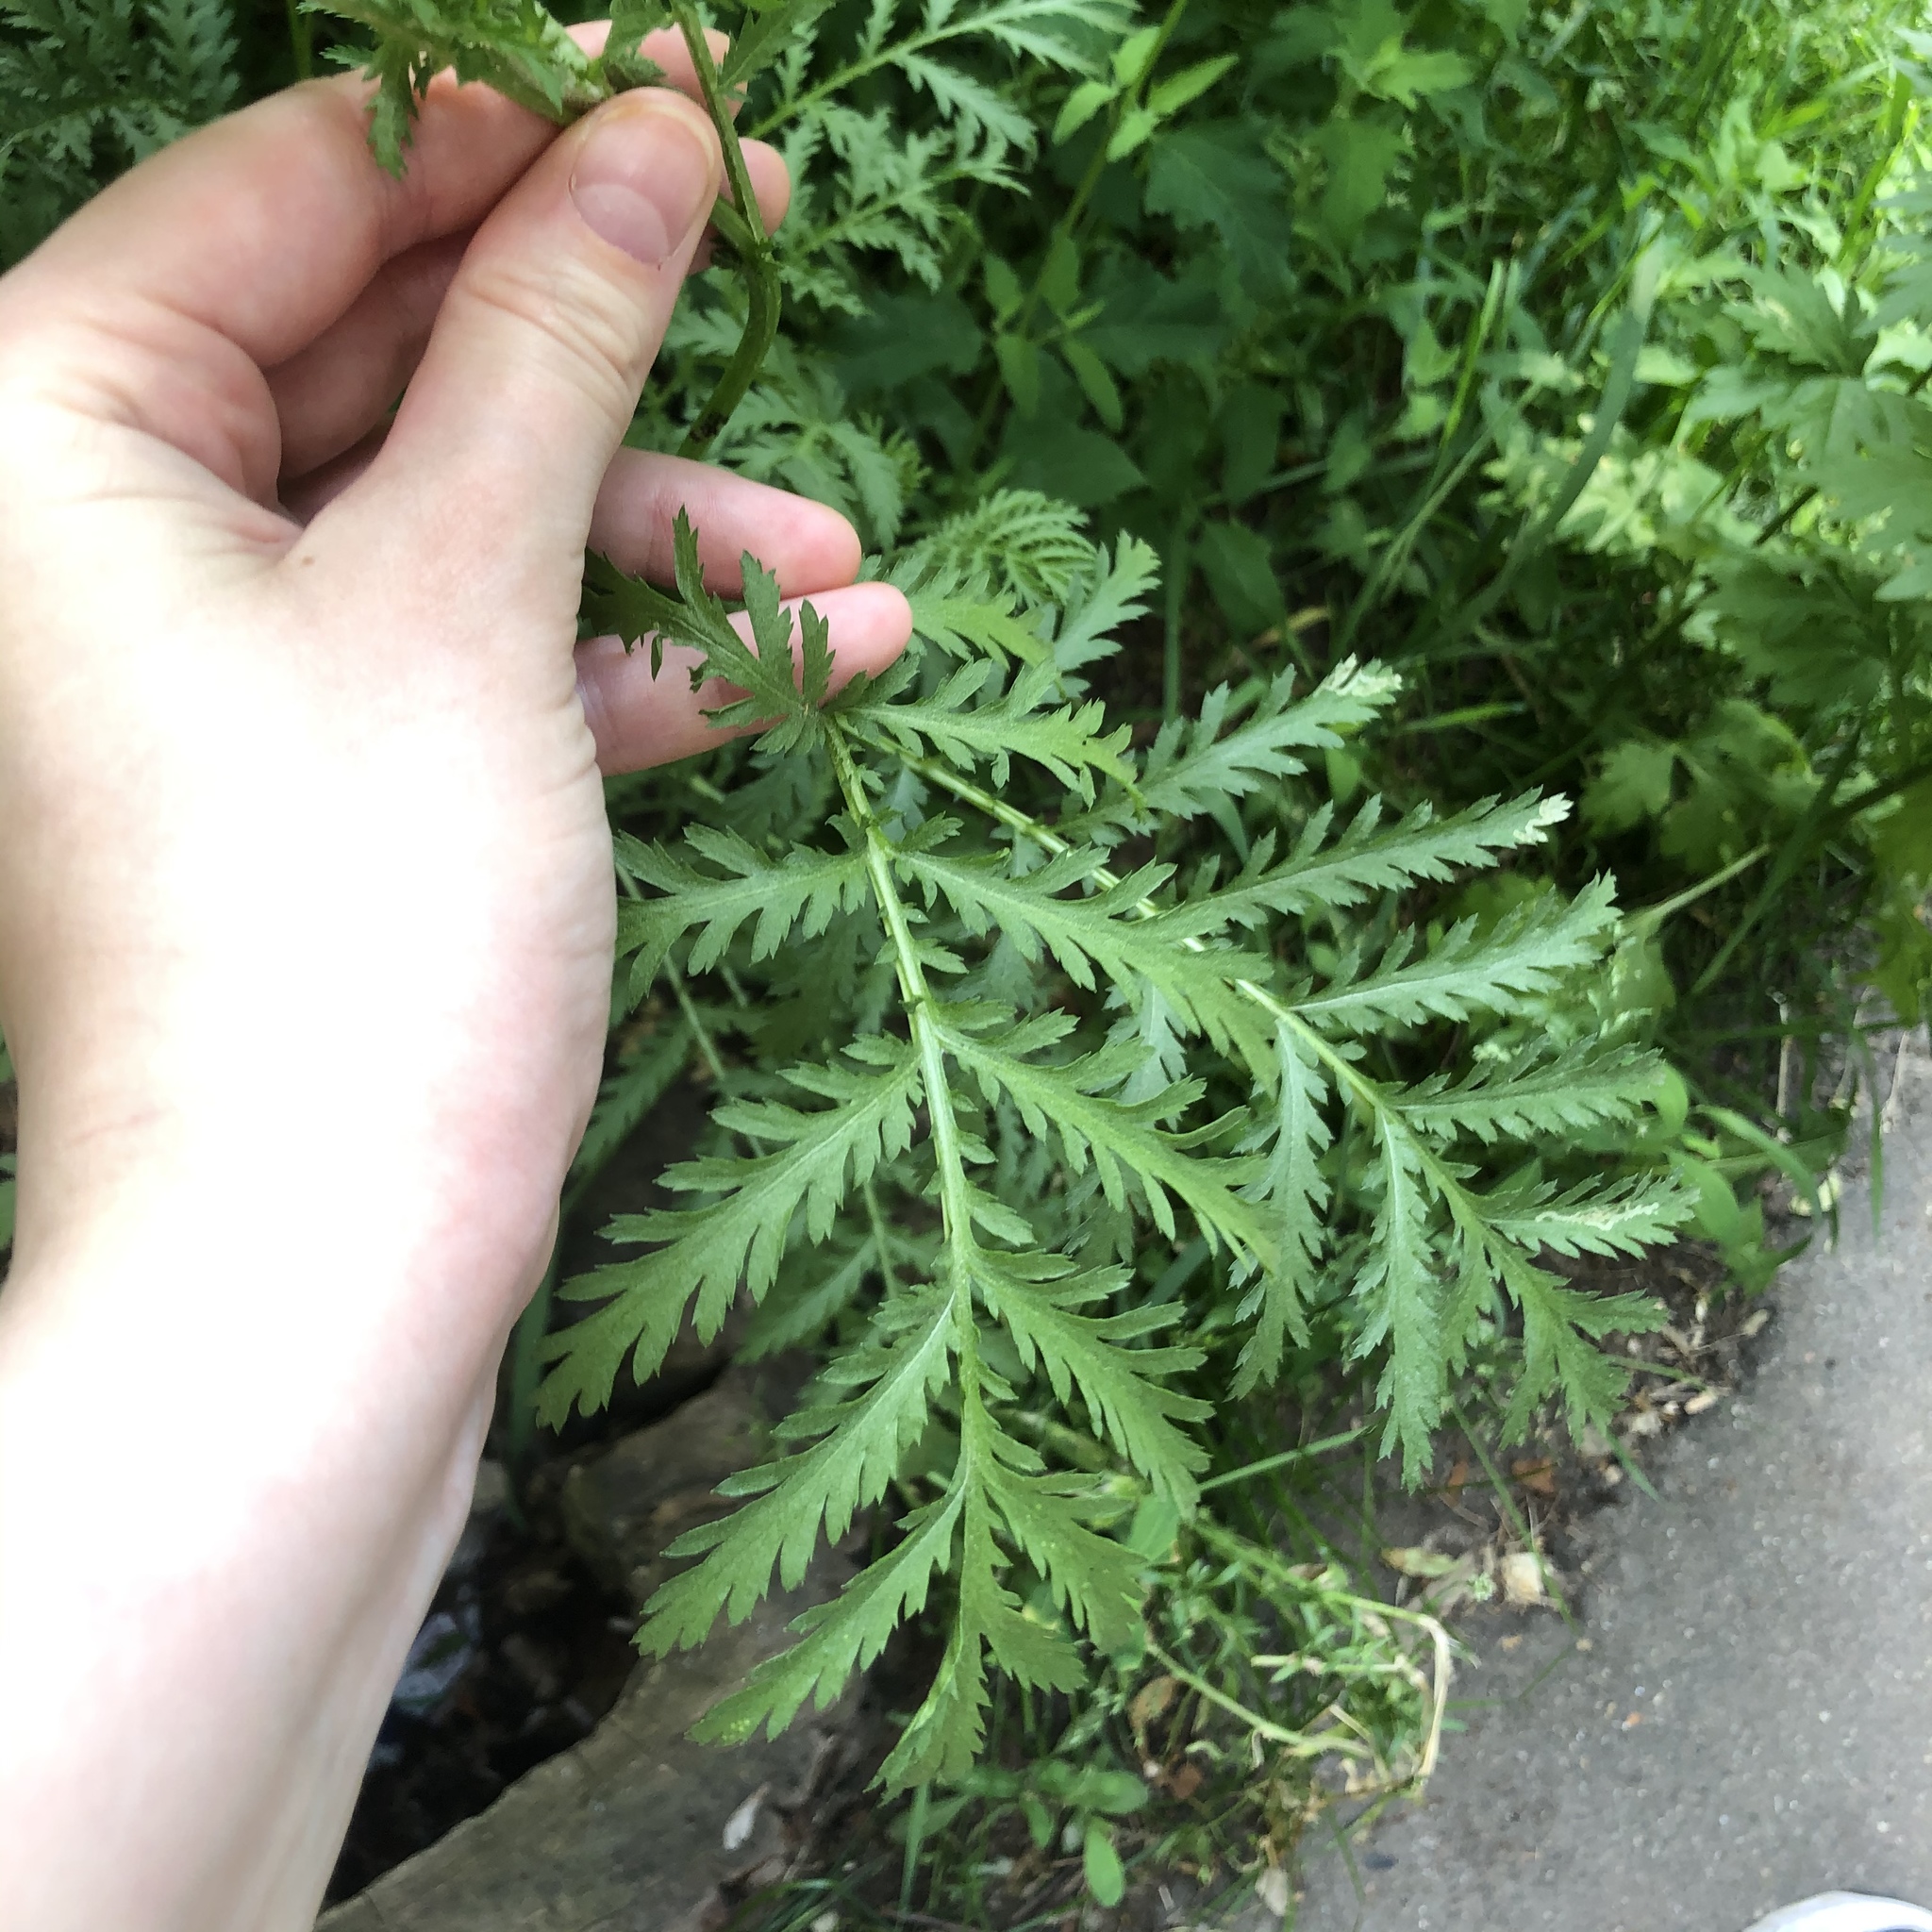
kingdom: Plantae
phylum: Tracheophyta
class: Magnoliopsida
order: Asterales
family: Asteraceae
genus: Tanacetum
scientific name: Tanacetum vulgare
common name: Common tansy
